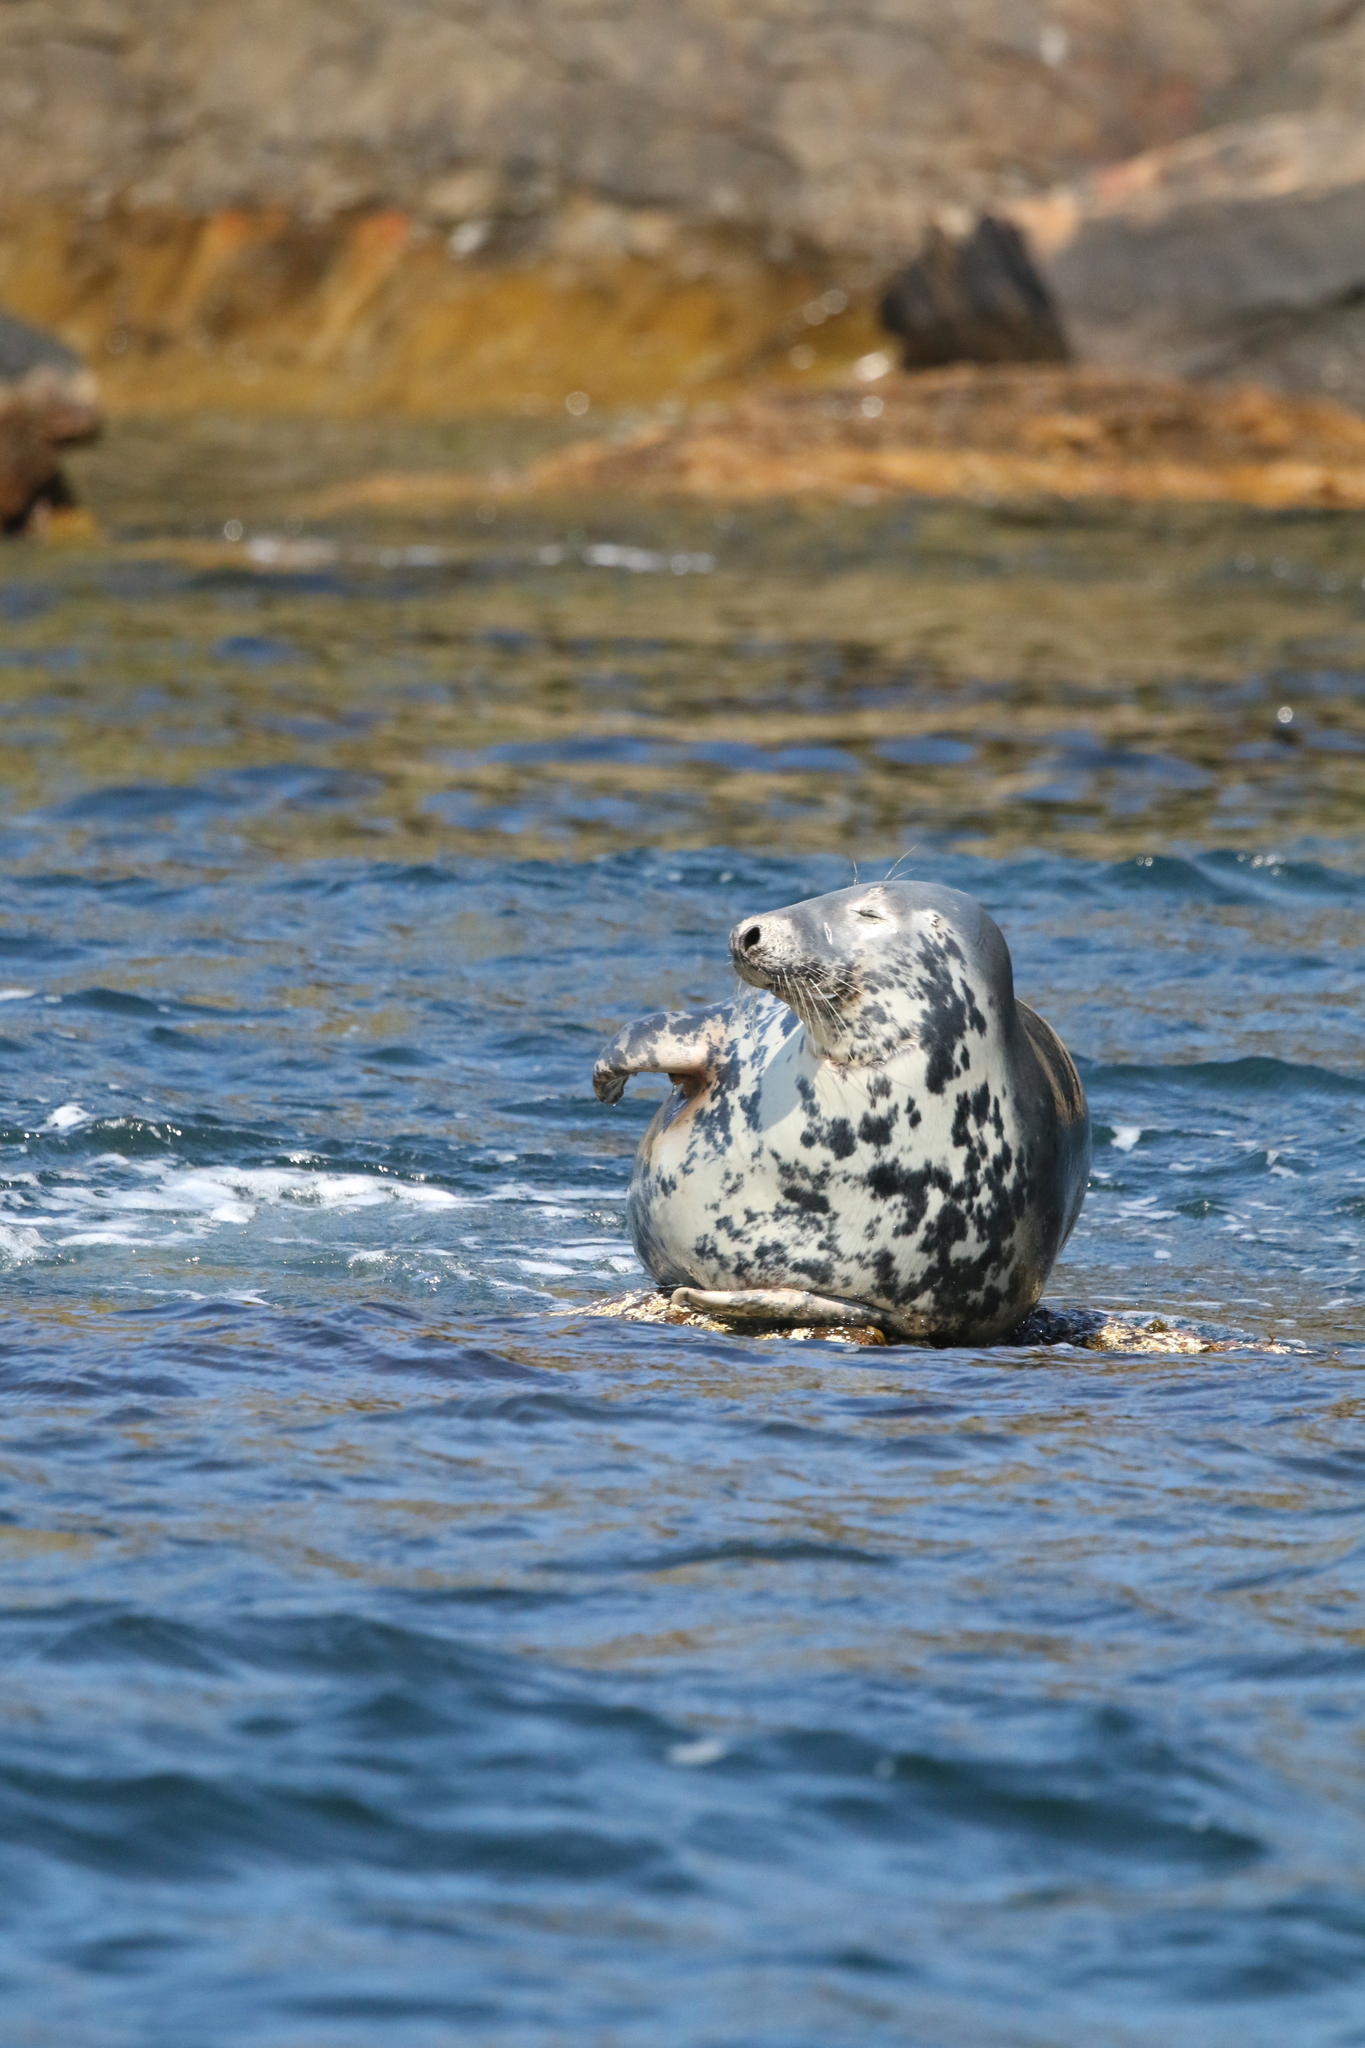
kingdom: Animalia
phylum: Chordata
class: Mammalia
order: Carnivora
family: Phocidae
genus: Halichoerus
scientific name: Halichoerus grypus
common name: Grey seal
